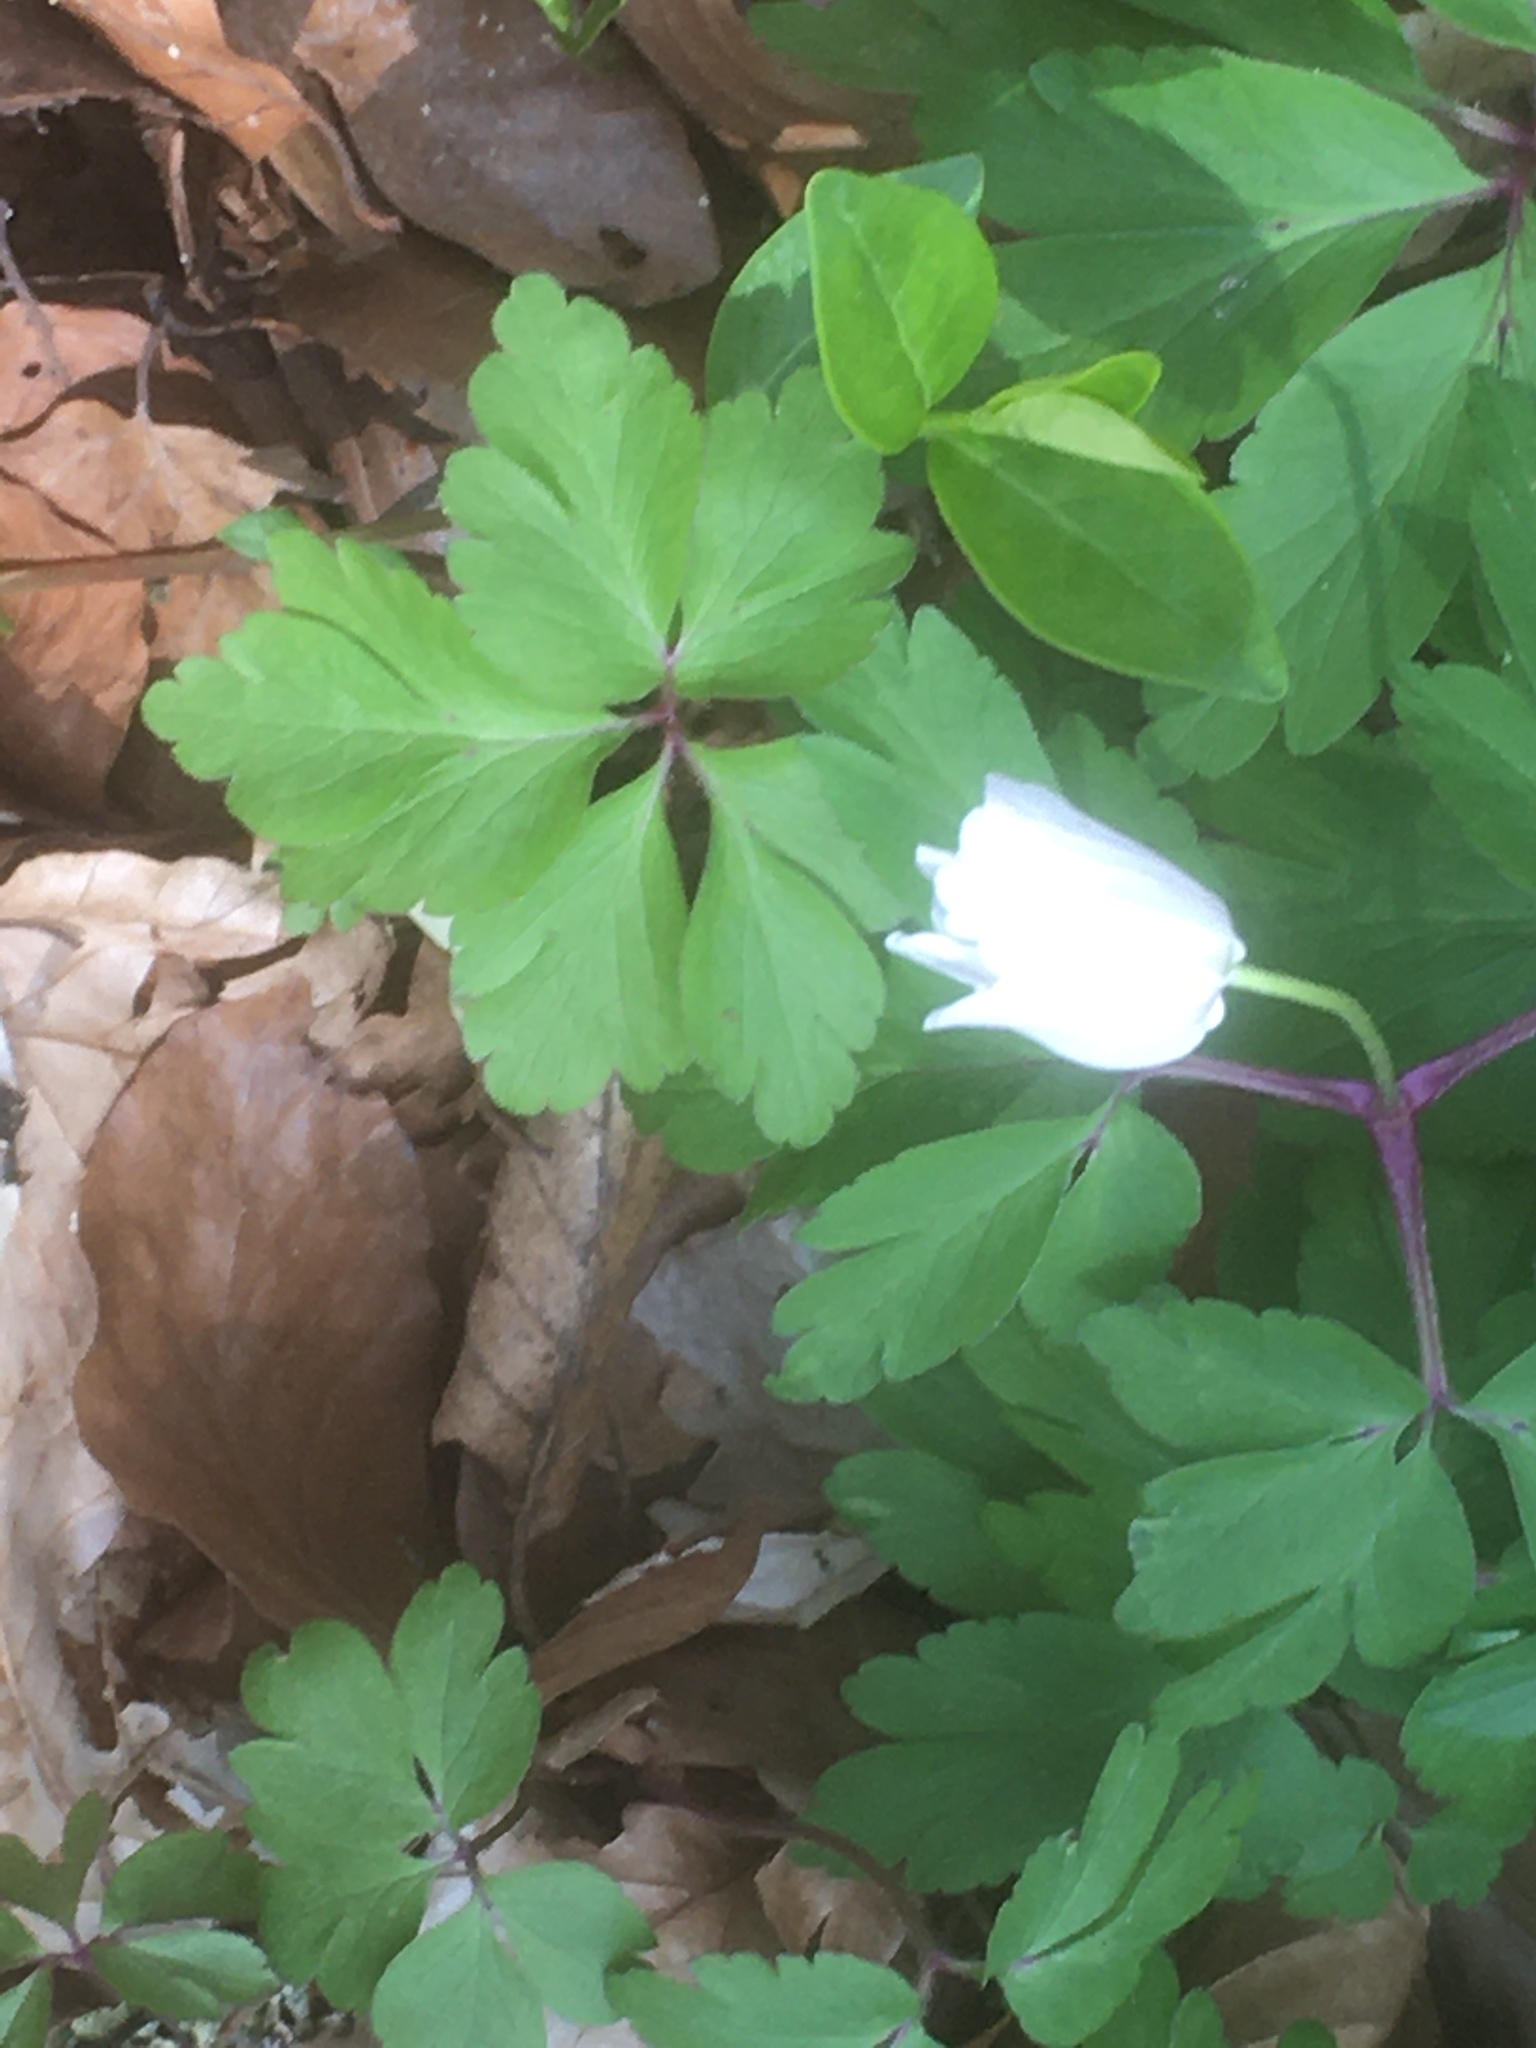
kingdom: Plantae
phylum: Tracheophyta
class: Magnoliopsida
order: Ranunculales
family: Ranunculaceae
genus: Anemone
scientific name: Anemone nemorosa
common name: Wood anemone
